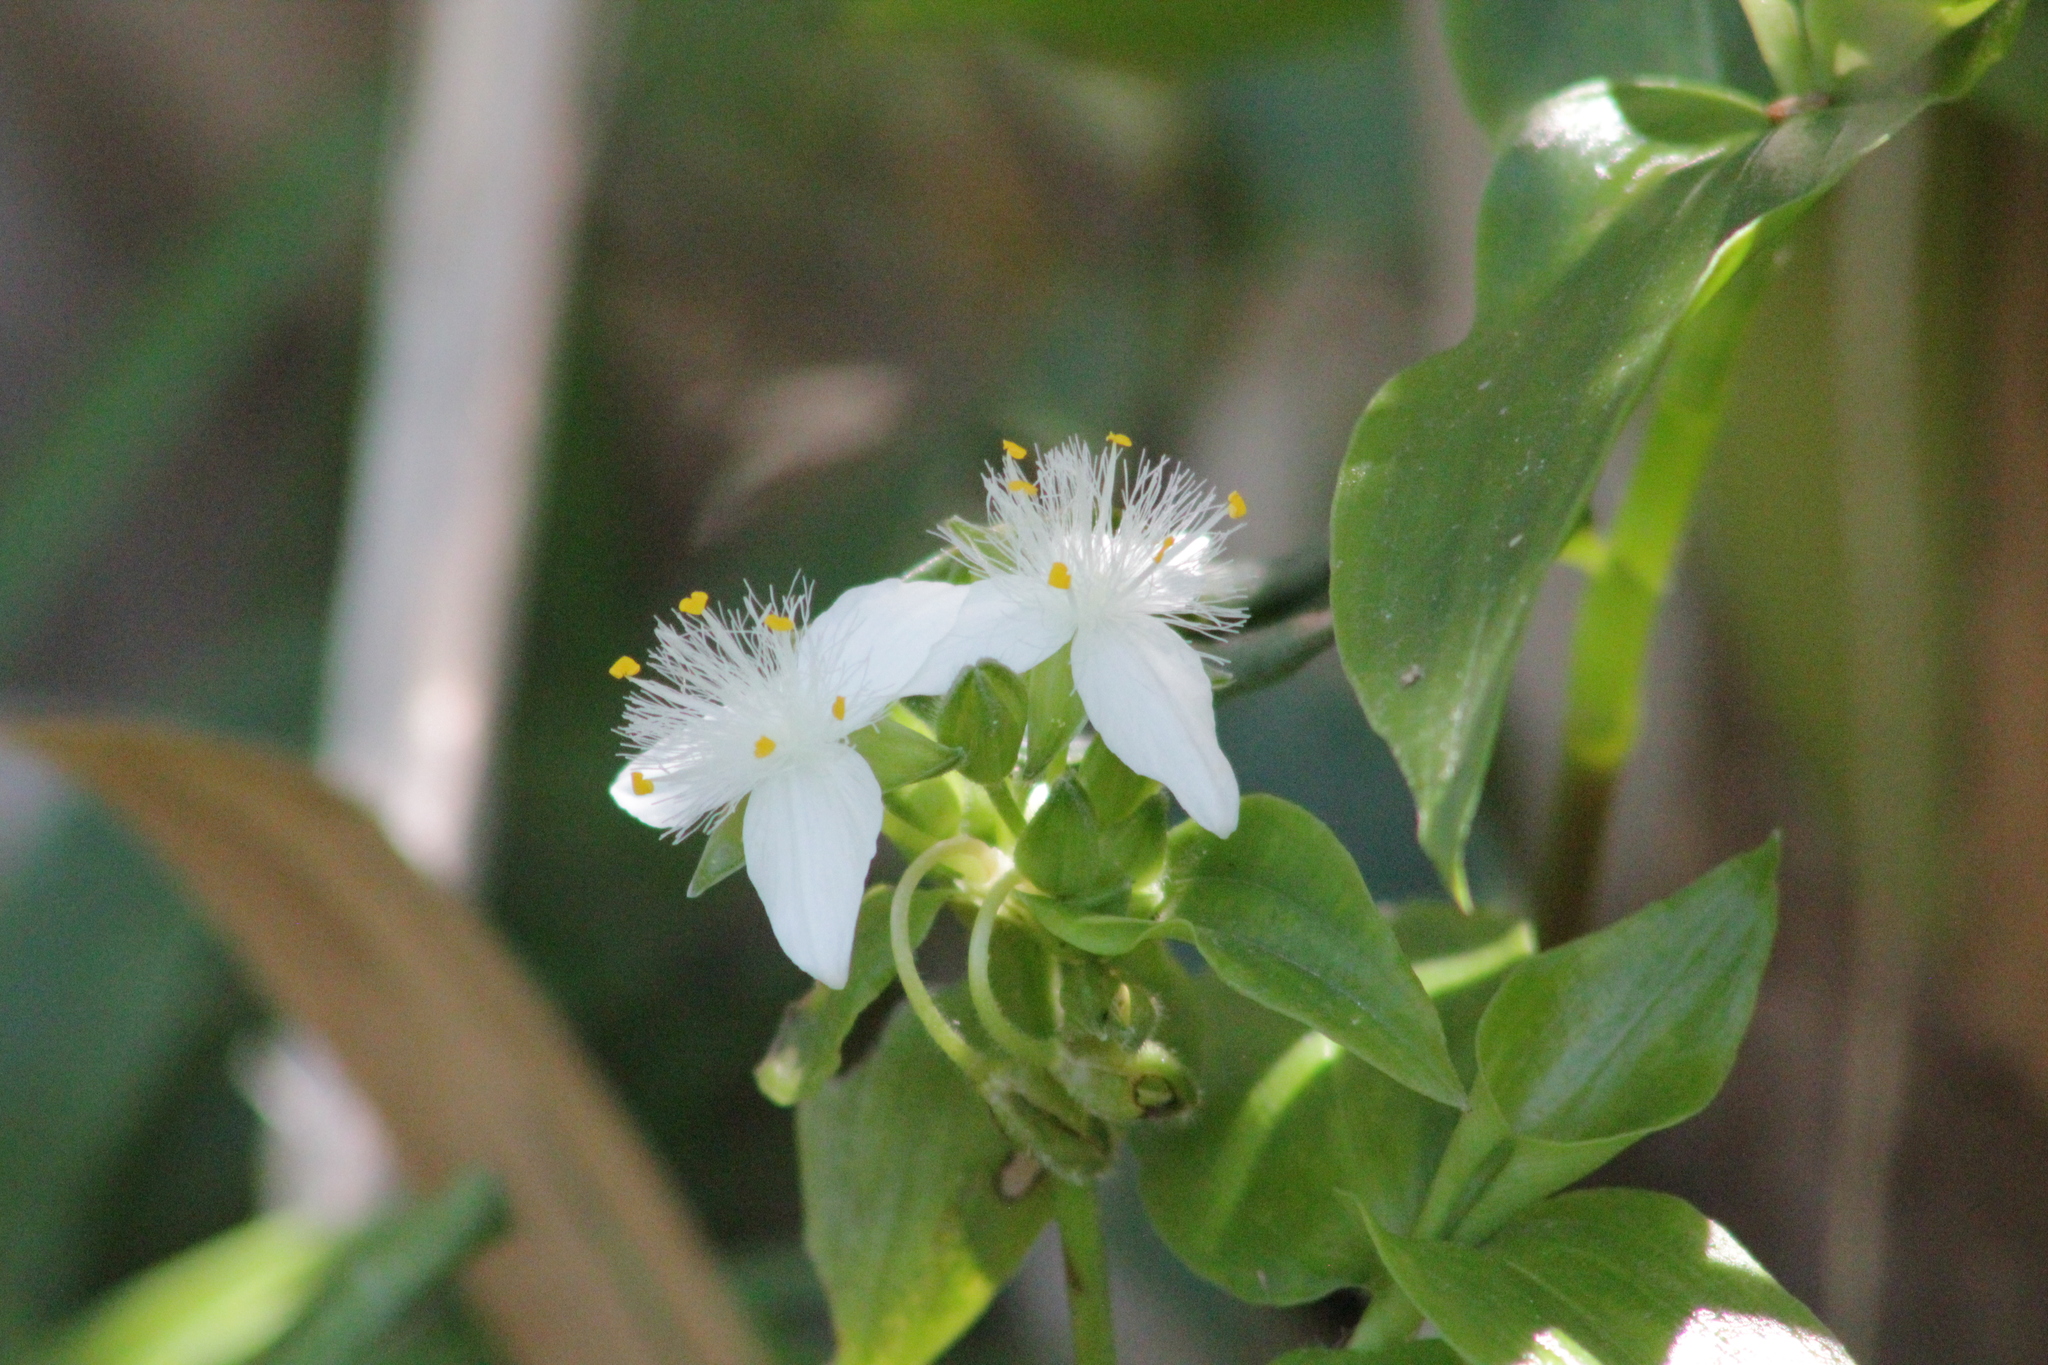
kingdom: Plantae
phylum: Tracheophyta
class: Liliopsida
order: Commelinales
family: Commelinaceae
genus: Tradescantia
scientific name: Tradescantia fluminensis
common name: Wandering-jew
